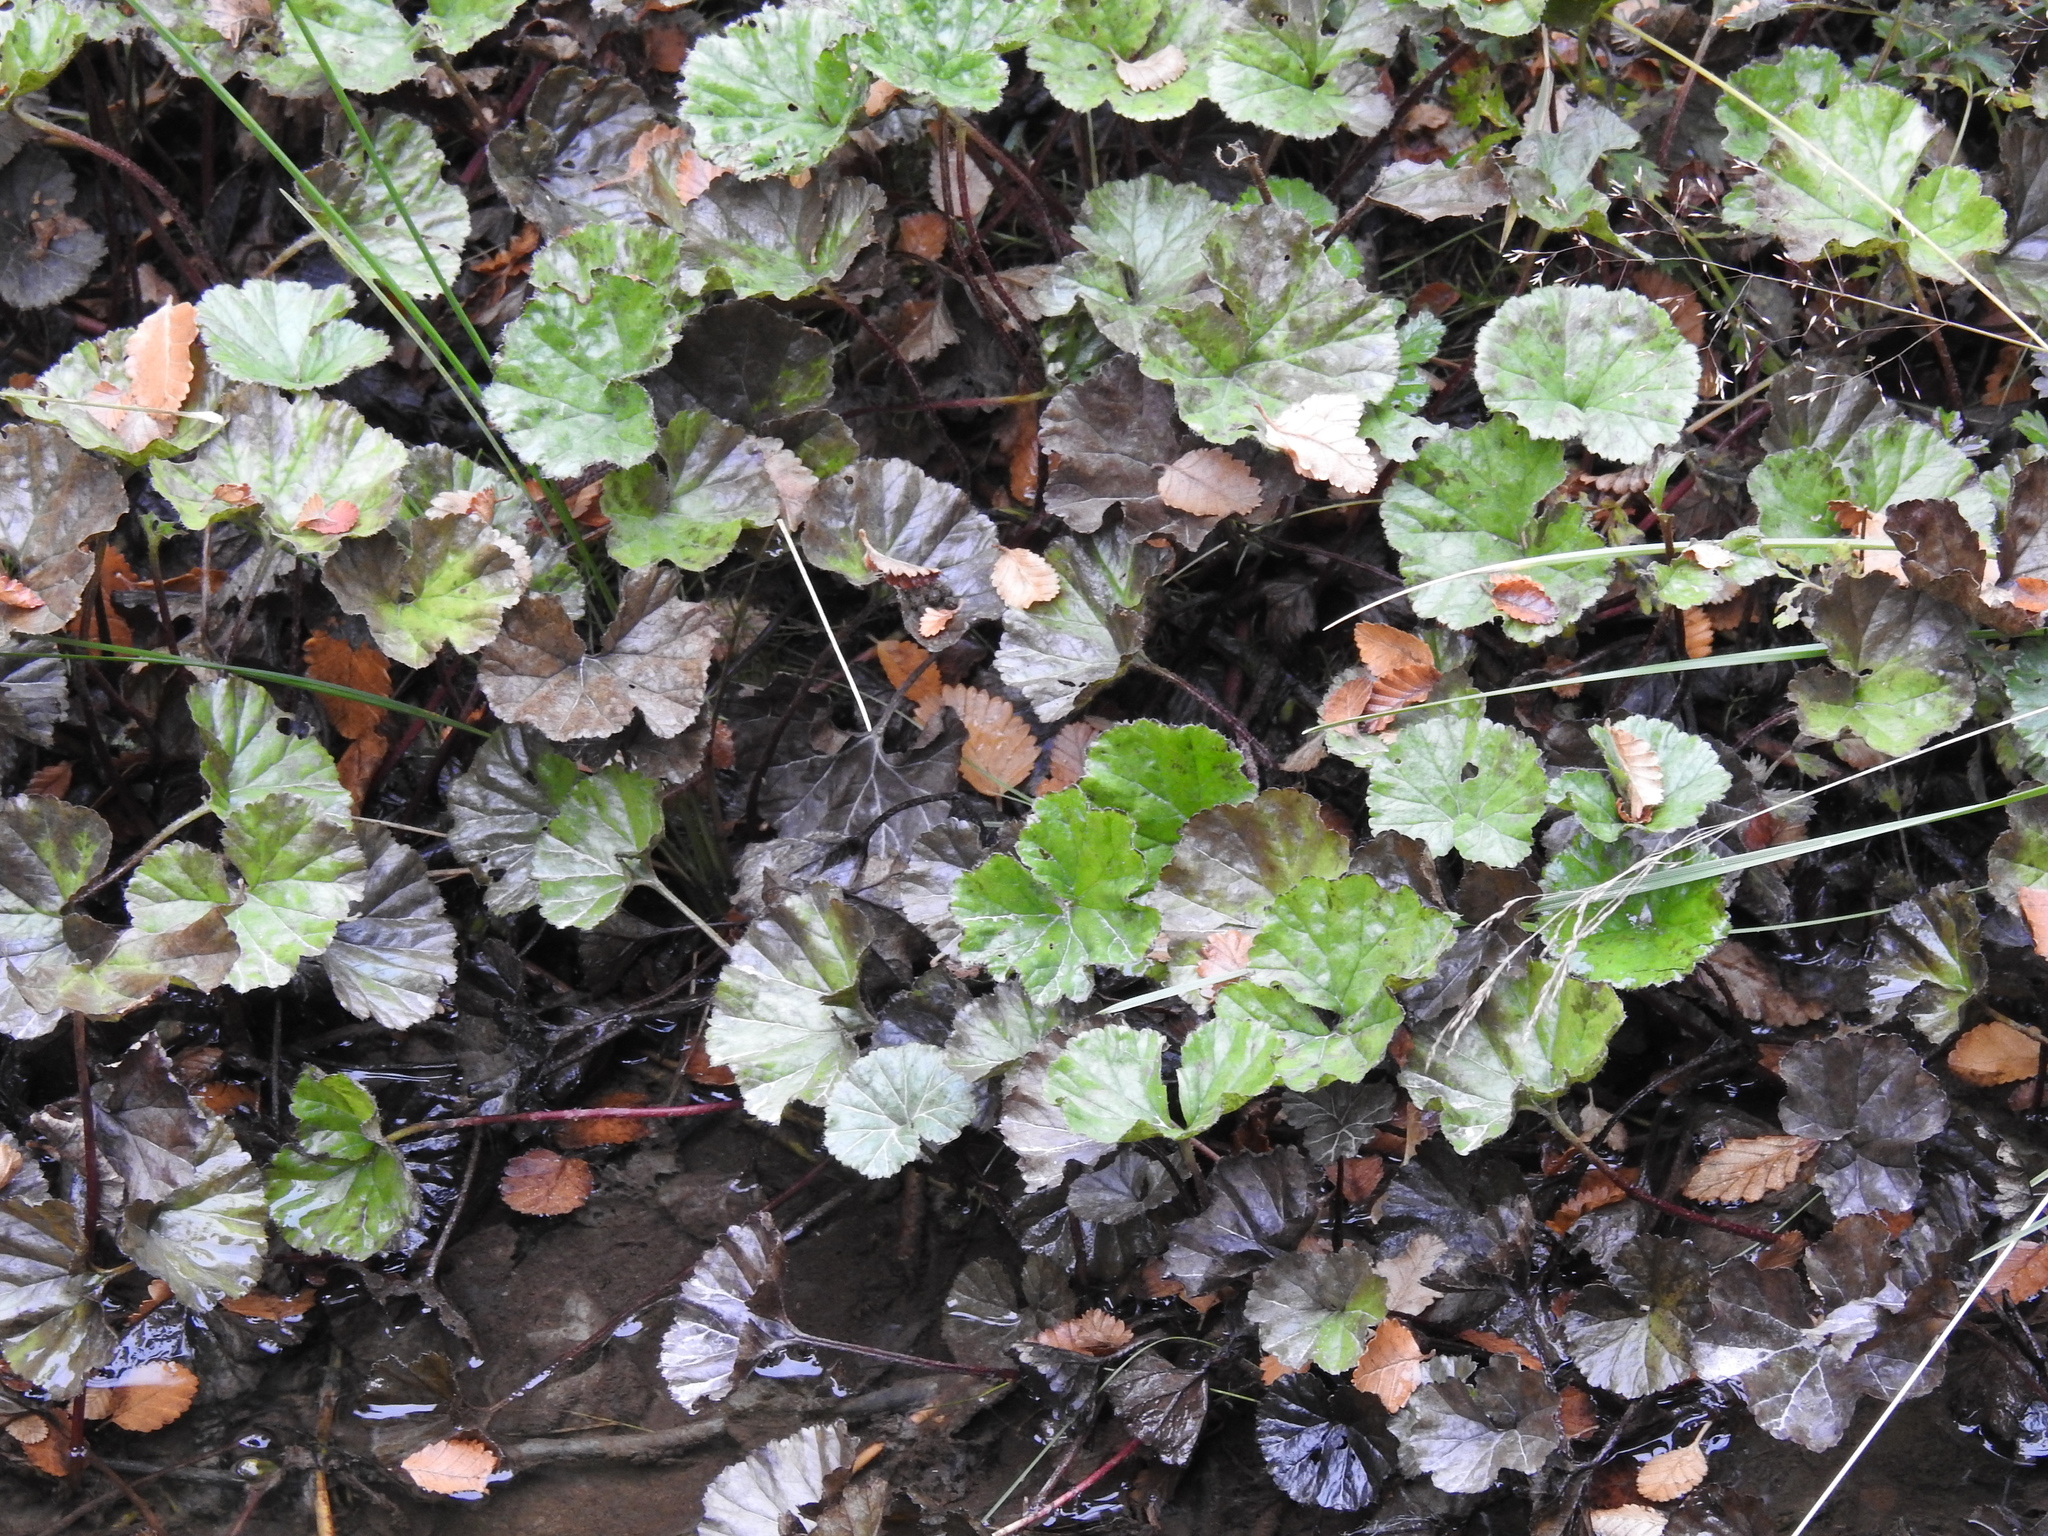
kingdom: Plantae
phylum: Tracheophyta
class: Magnoliopsida
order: Gunnerales
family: Gunneraceae
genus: Gunnera
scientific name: Gunnera magellanica
